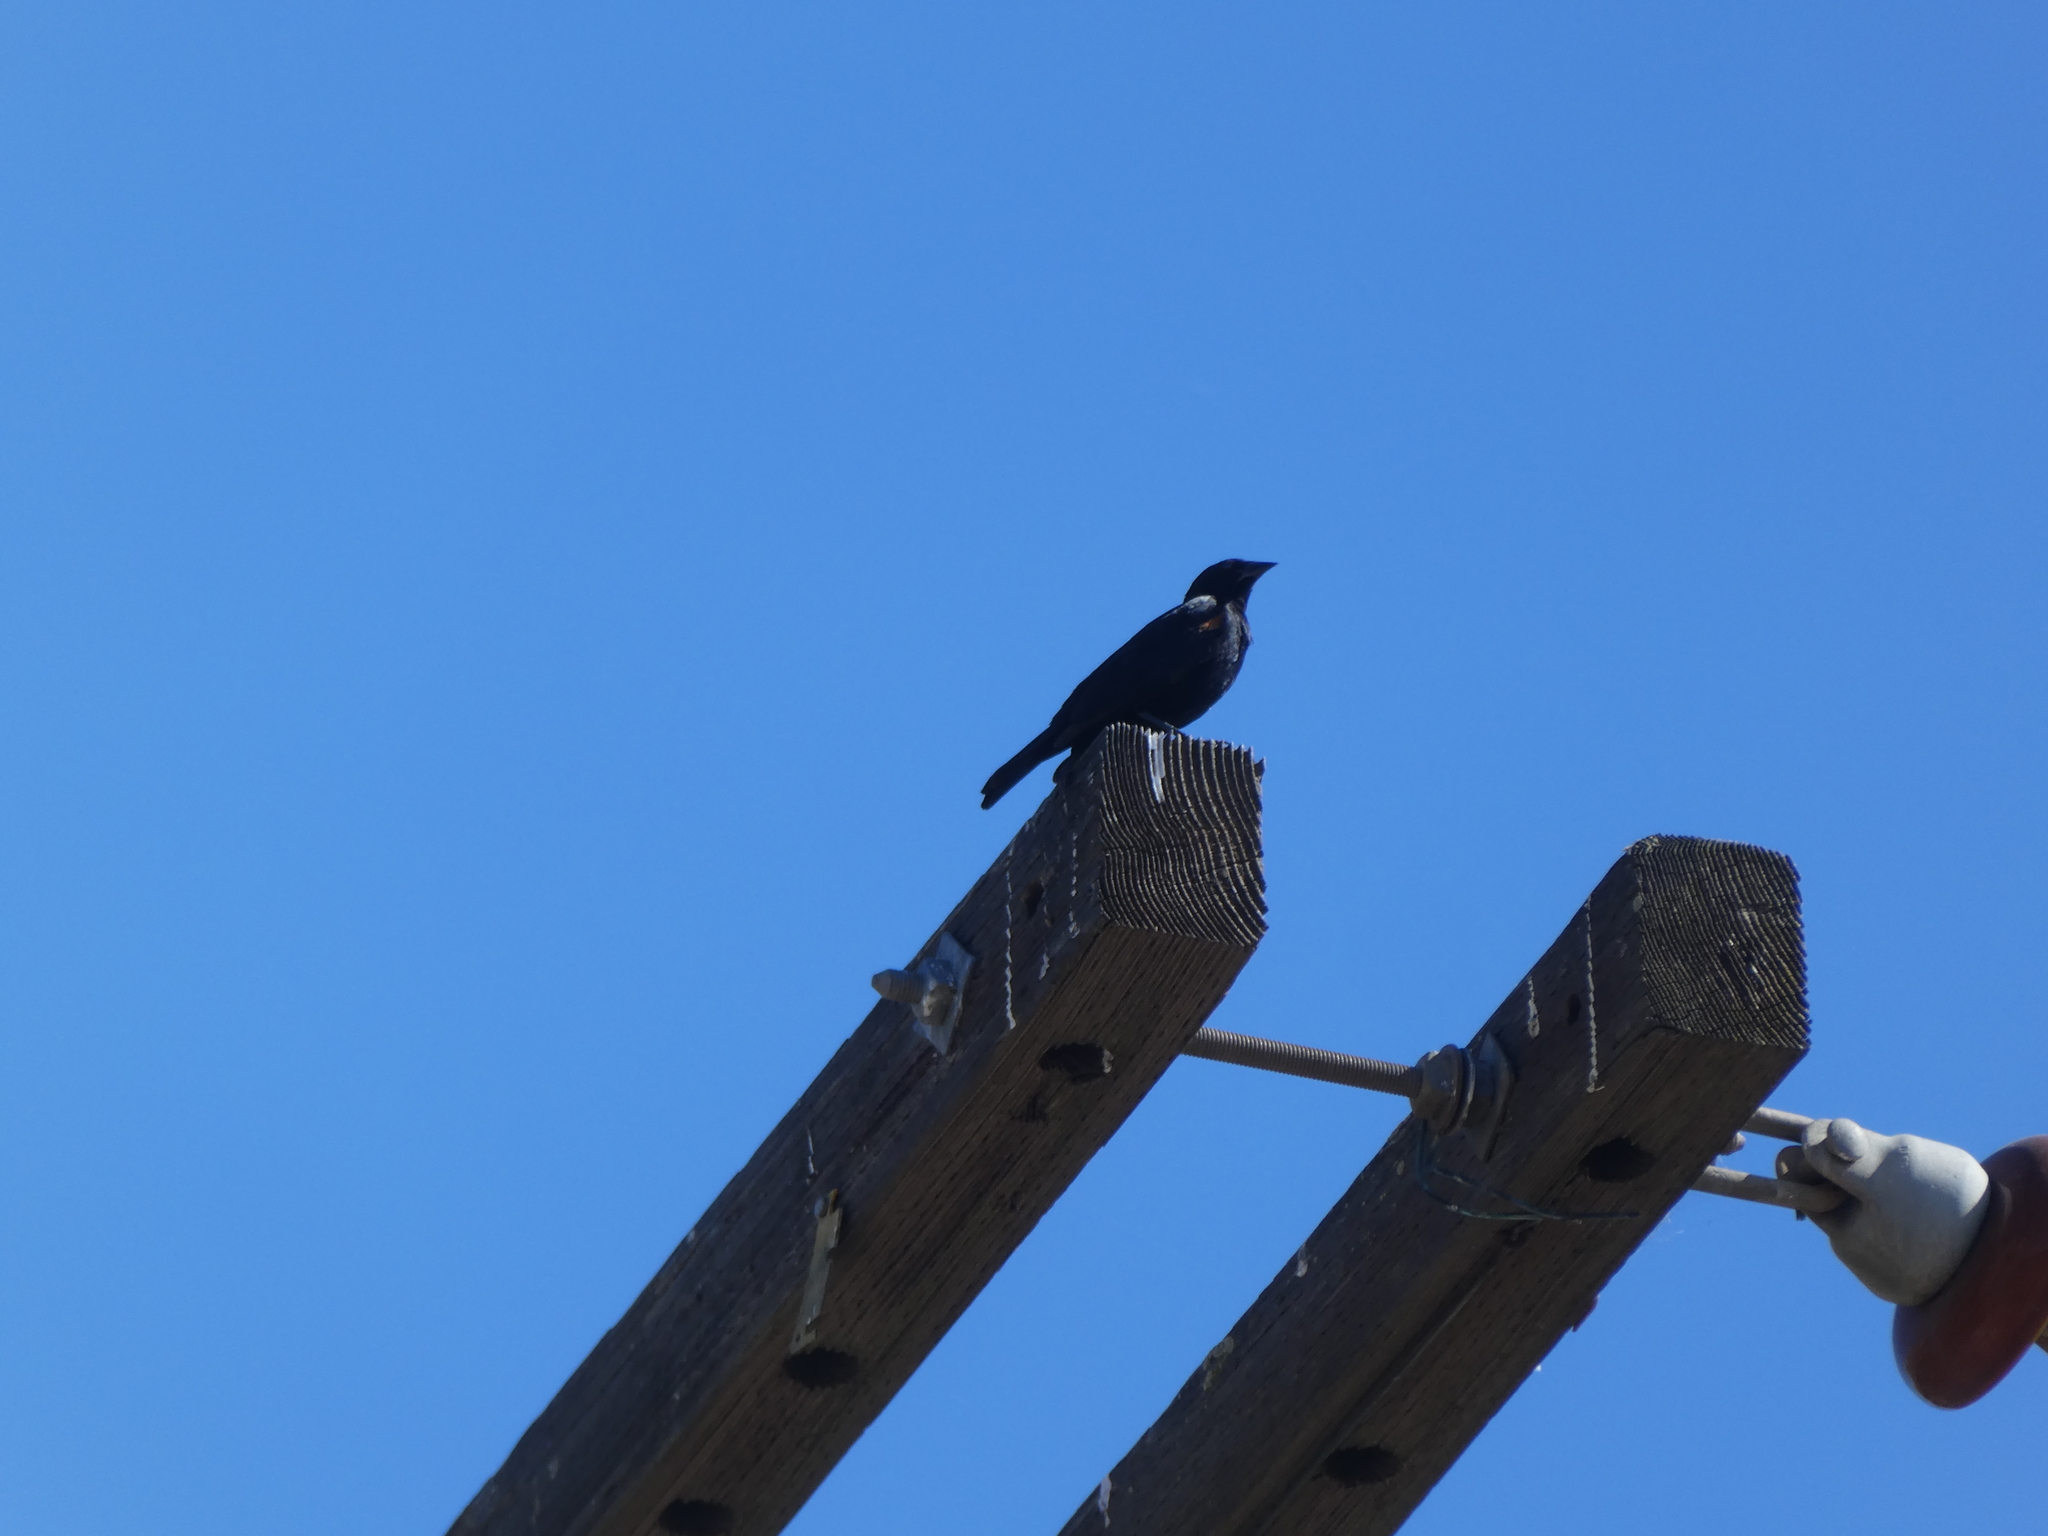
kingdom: Animalia
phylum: Chordata
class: Aves
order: Passeriformes
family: Icteridae
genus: Agelaius
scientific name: Agelaius phoeniceus
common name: Red-winged blackbird
